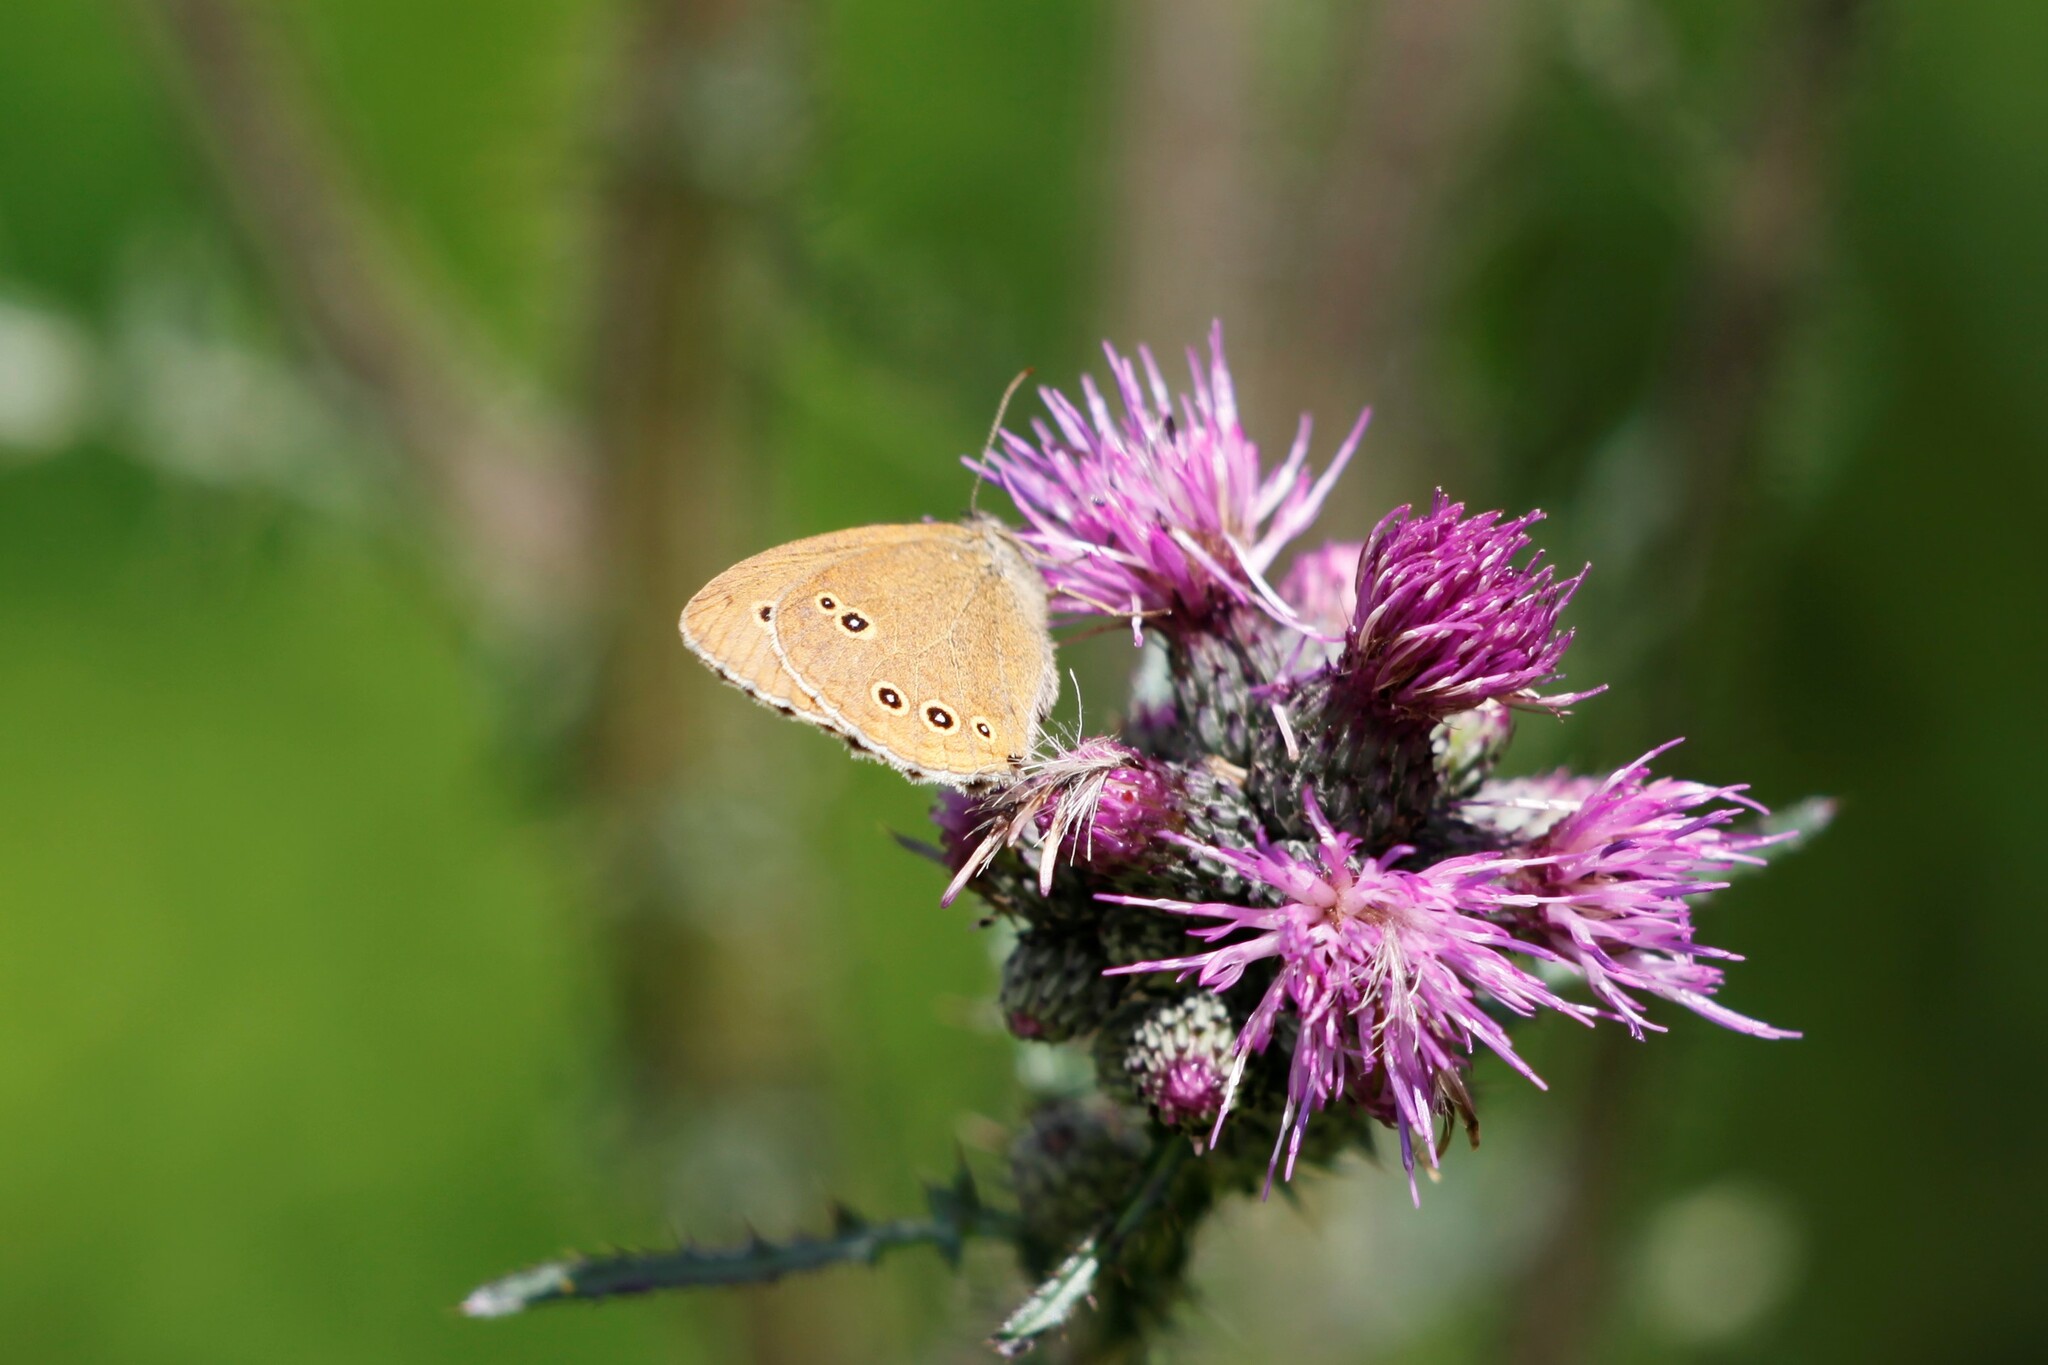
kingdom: Animalia
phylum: Arthropoda
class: Insecta
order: Lepidoptera
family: Nymphalidae
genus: Aphantopus
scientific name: Aphantopus hyperantus
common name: Ringlet
